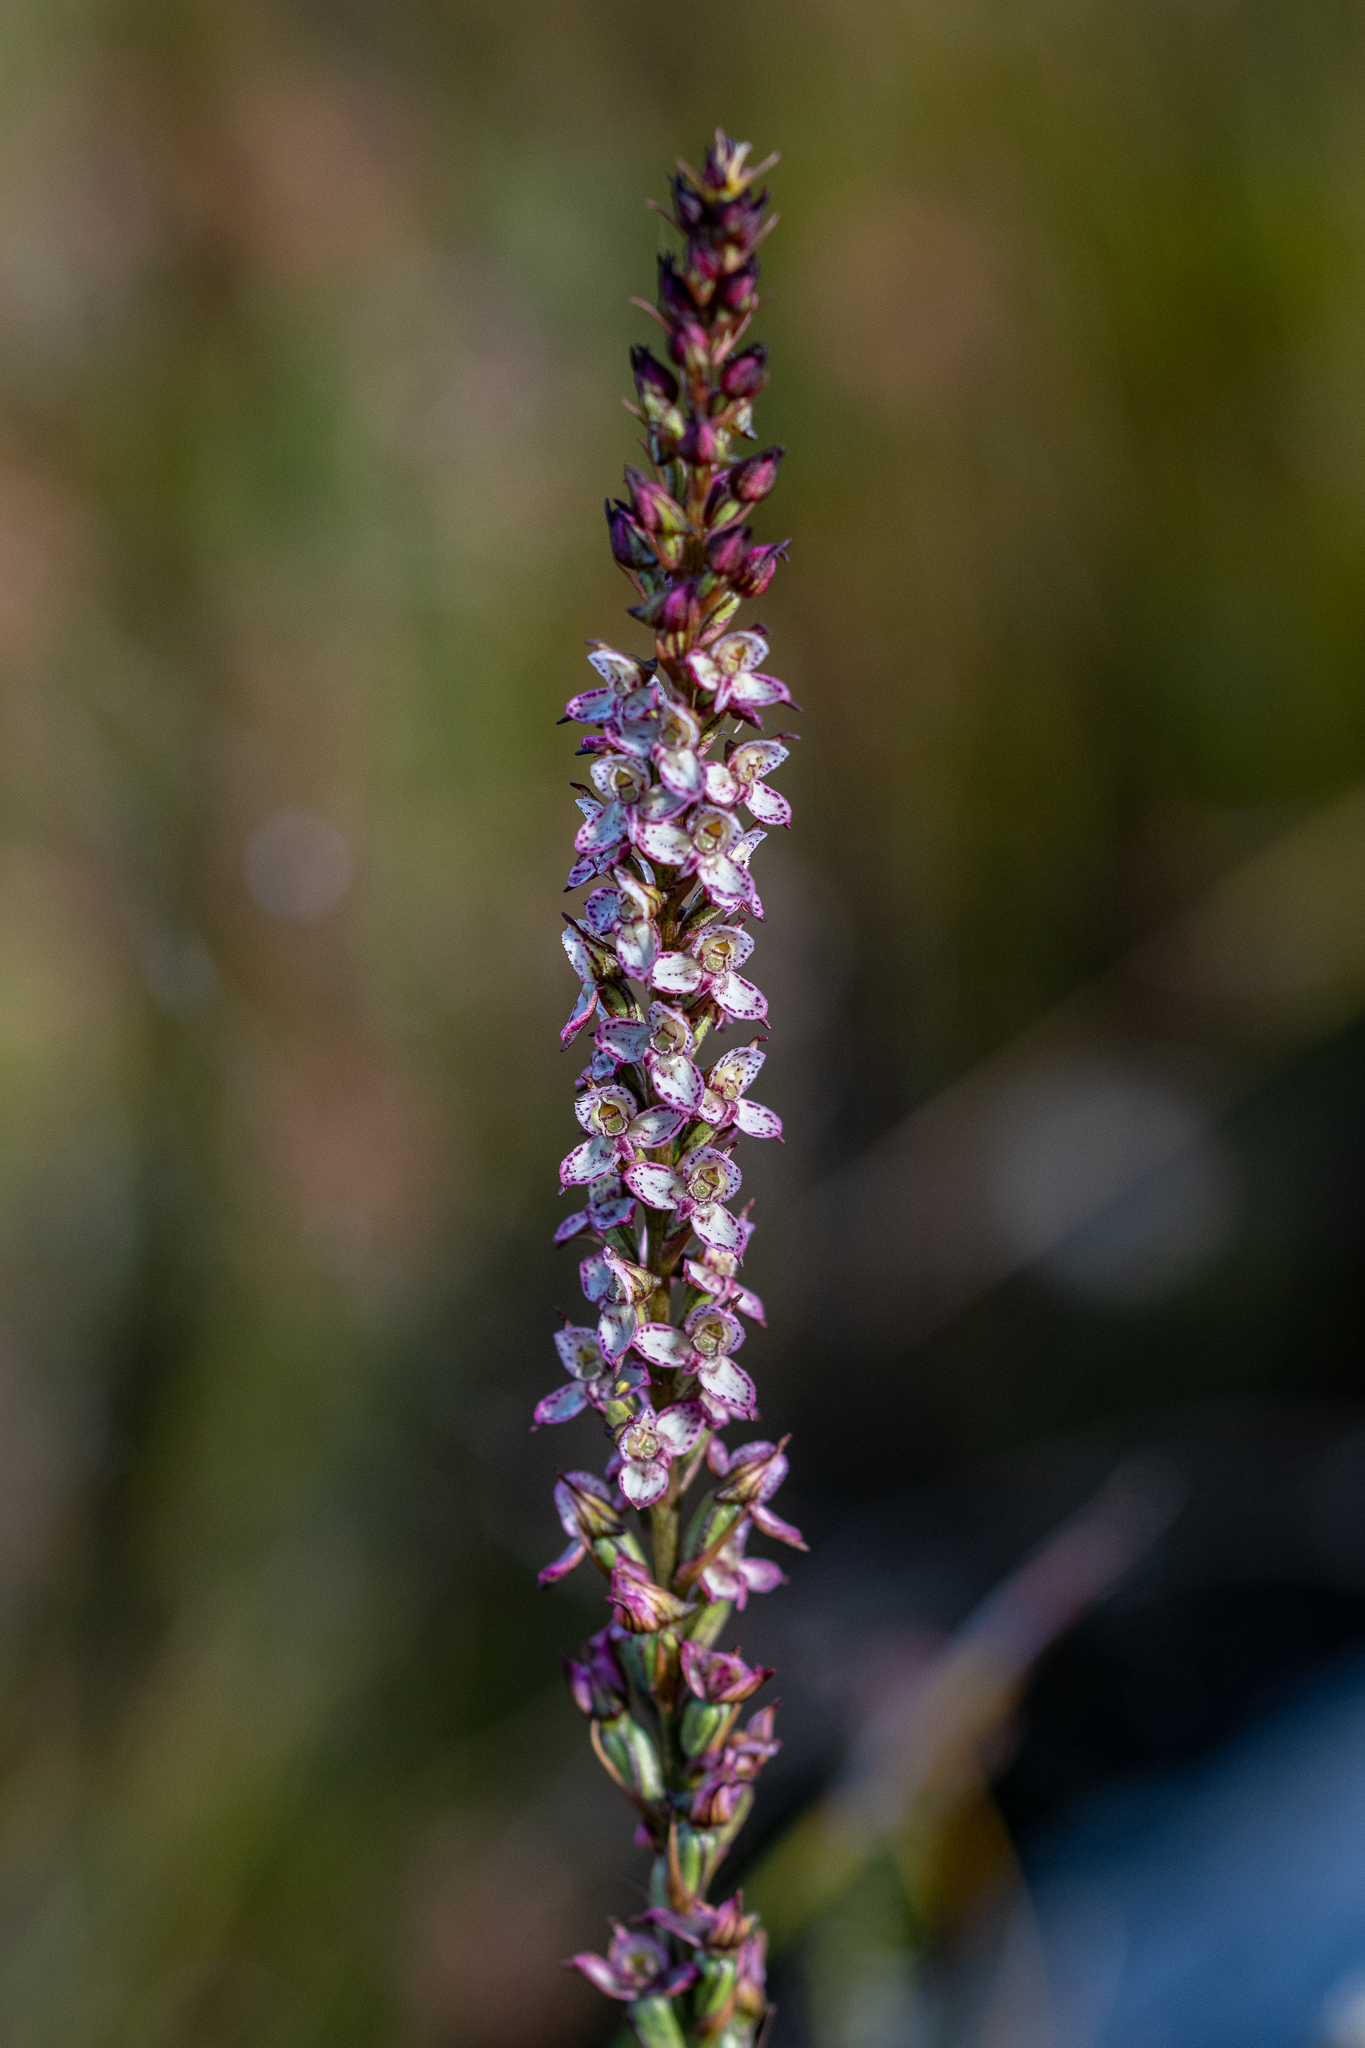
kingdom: Plantae
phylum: Tracheophyta
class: Liliopsida
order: Asparagales
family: Orchidaceae
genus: Disa
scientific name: Disa tenuis
